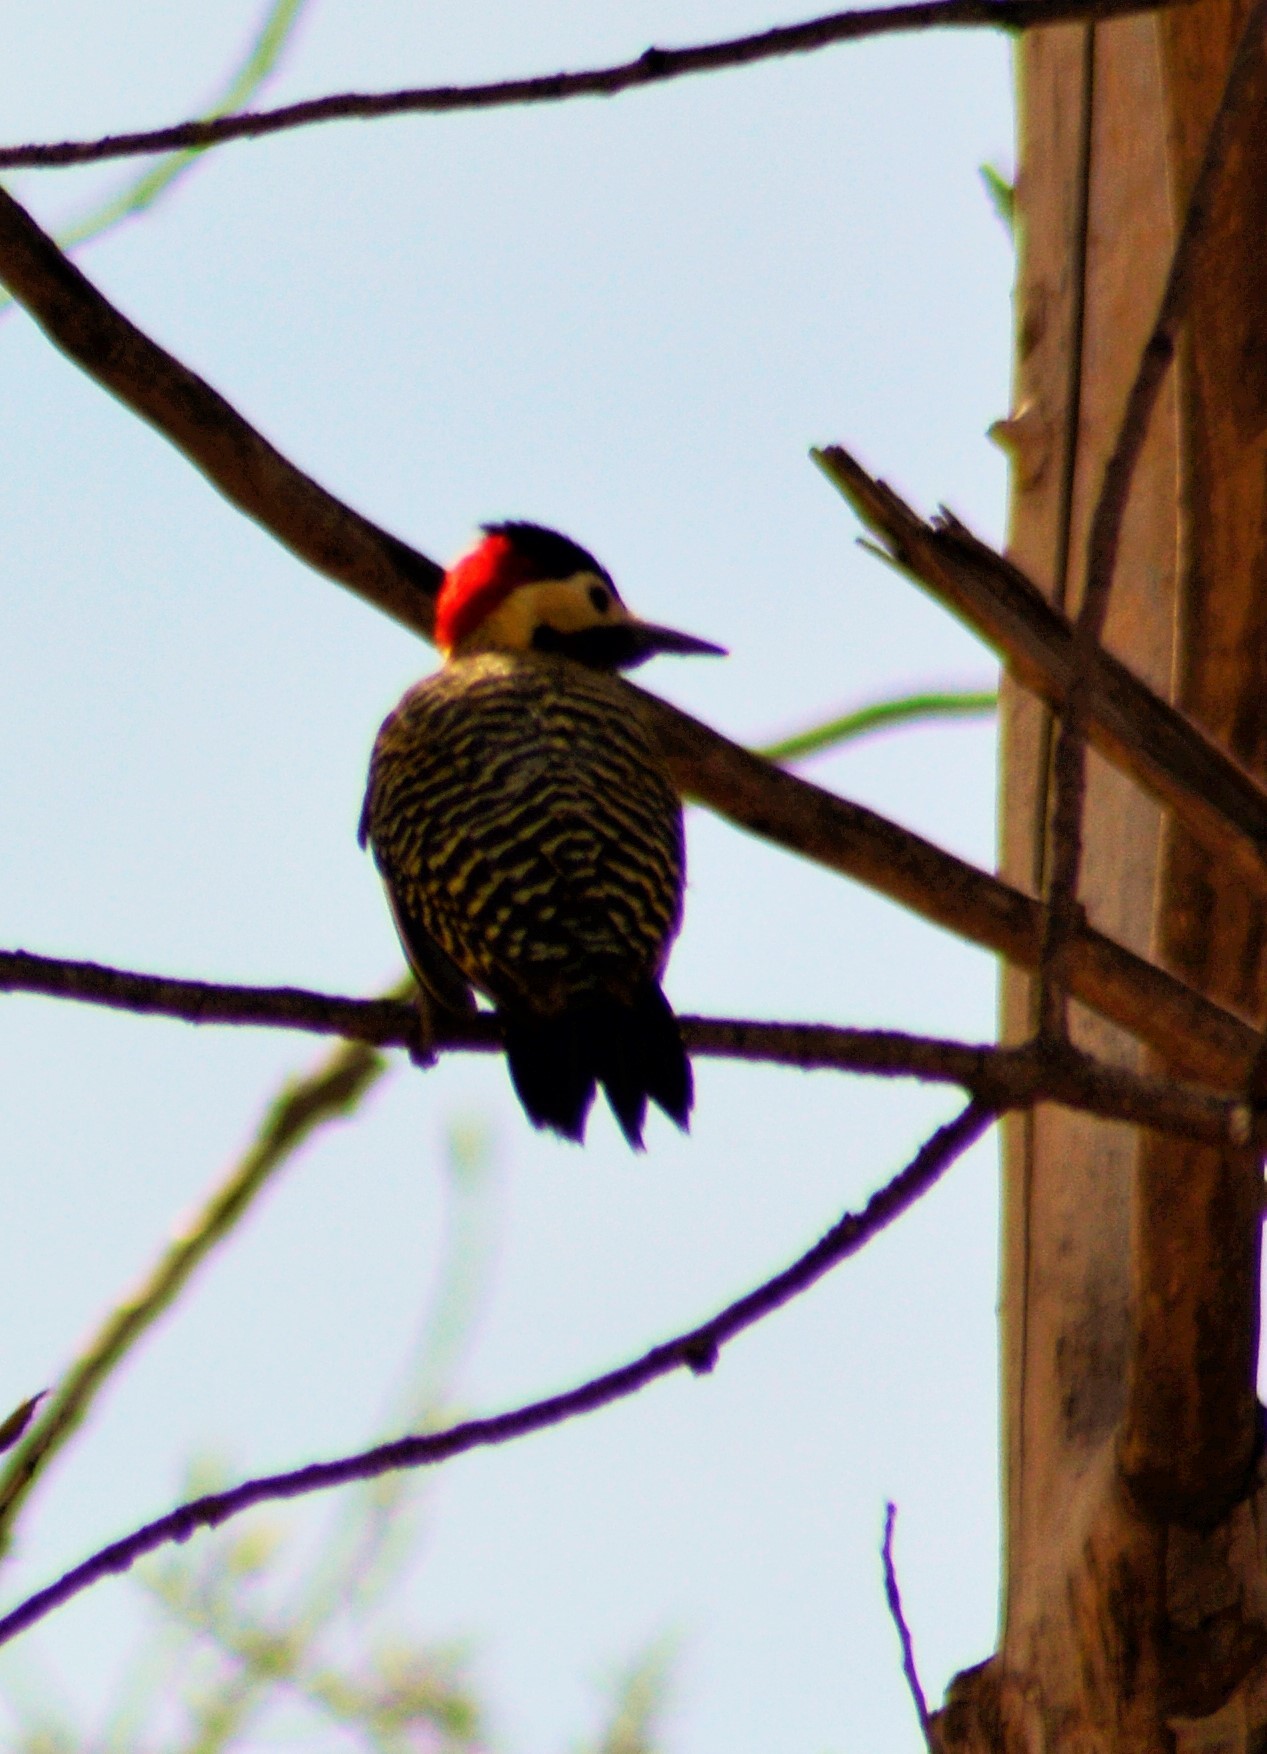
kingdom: Animalia
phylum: Chordata
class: Aves
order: Piciformes
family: Picidae
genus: Colaptes
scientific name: Colaptes melanochloros
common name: Green-barred woodpecker
